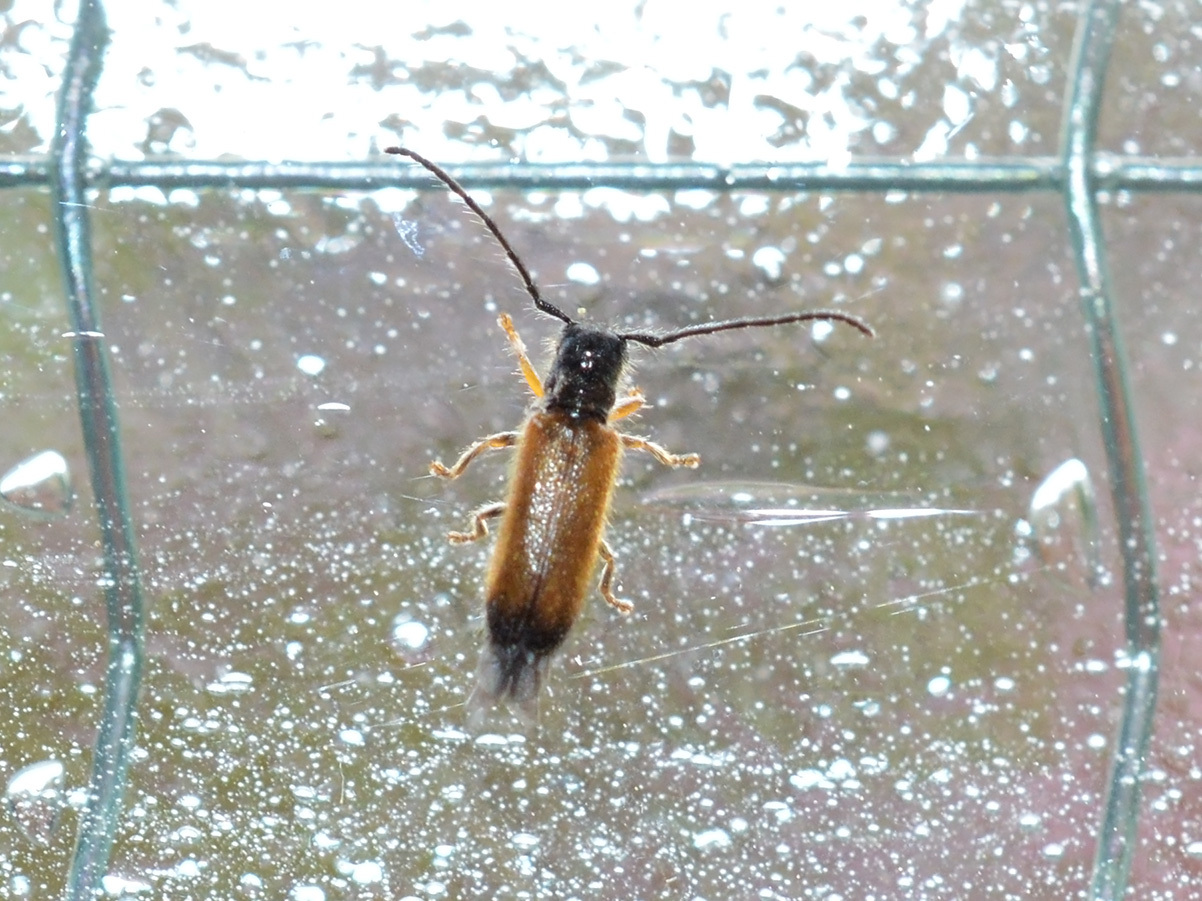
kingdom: Animalia
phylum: Arthropoda
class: Insecta
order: Coleoptera
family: Cerambycidae
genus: Tetrops
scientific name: Tetrops praeustus
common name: Plum beetle
